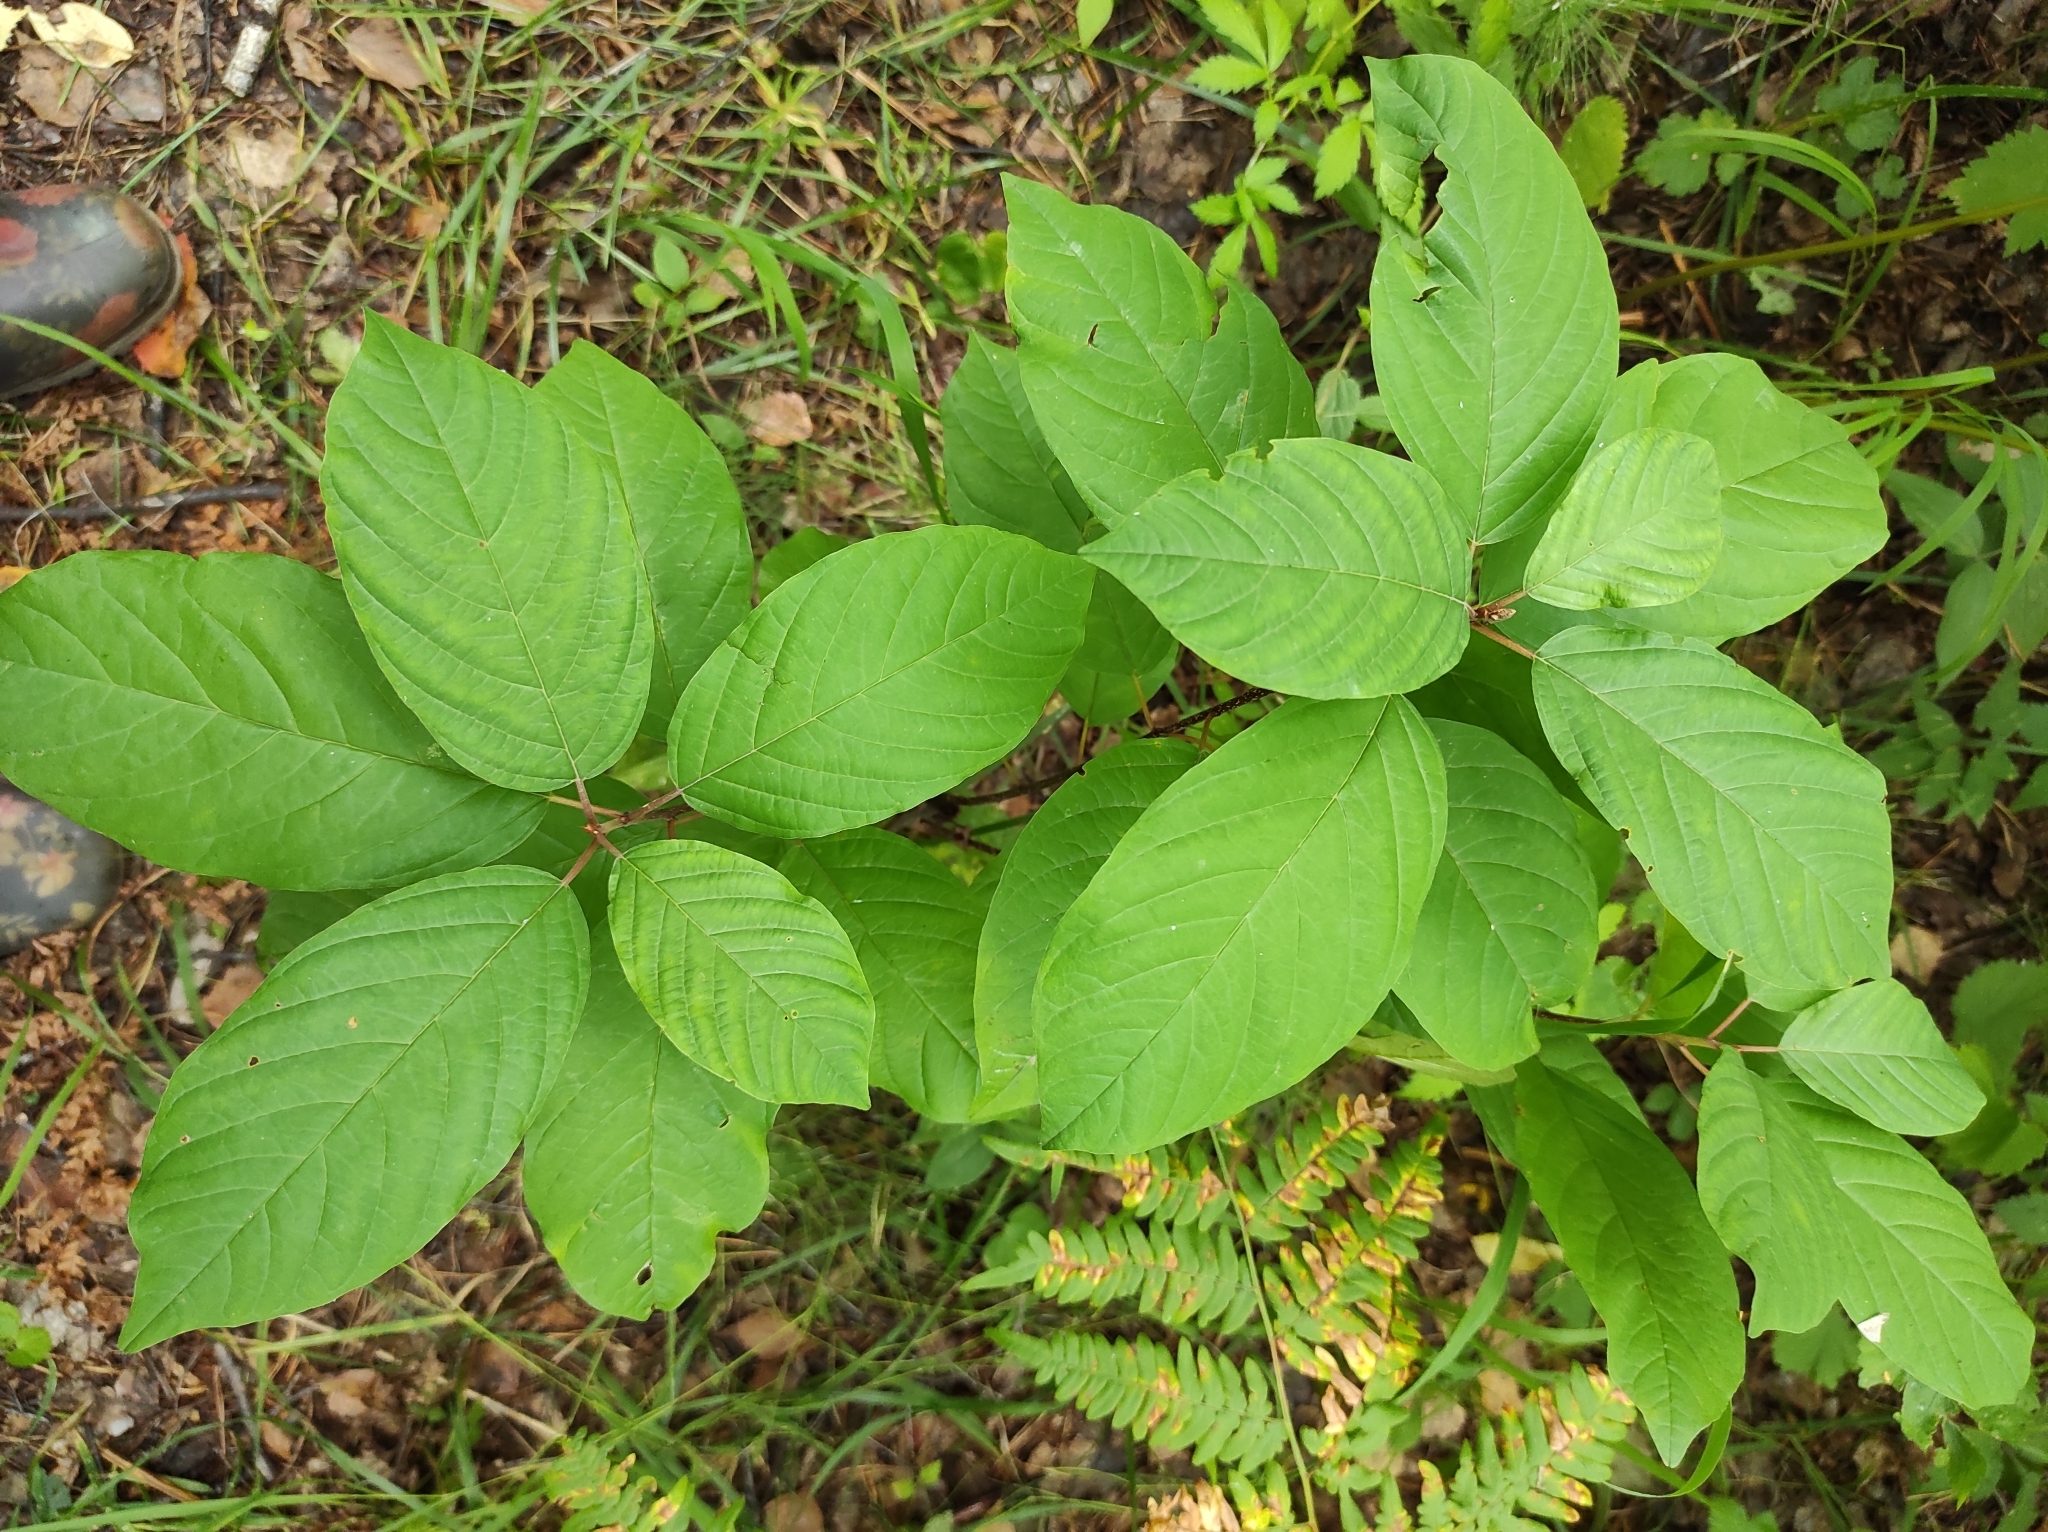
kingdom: Plantae
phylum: Tracheophyta
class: Magnoliopsida
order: Rosales
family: Rhamnaceae
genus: Frangula
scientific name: Frangula alnus
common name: Alder buckthorn
